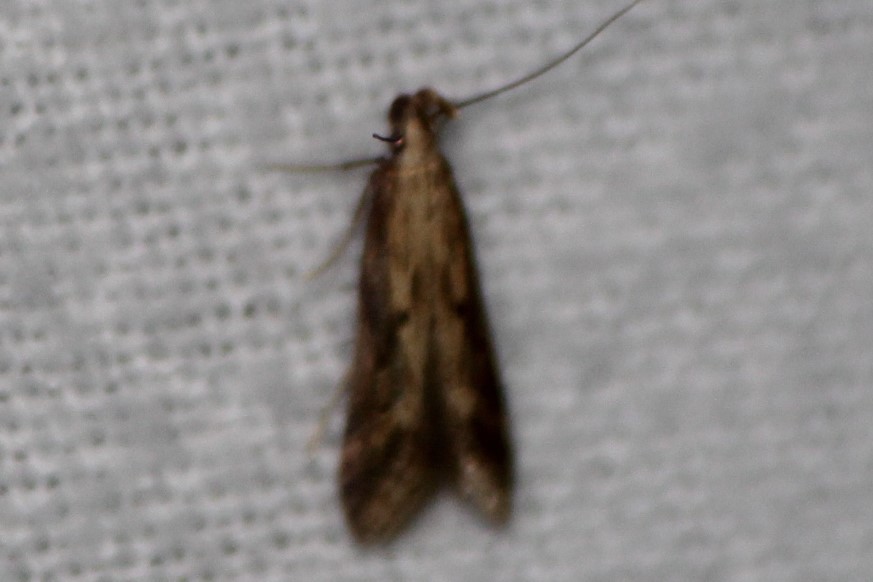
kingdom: Animalia
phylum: Arthropoda
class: Insecta
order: Lepidoptera
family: Gelechiidae
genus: Metzneria
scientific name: Metzneria lappella
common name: Burdock neb
